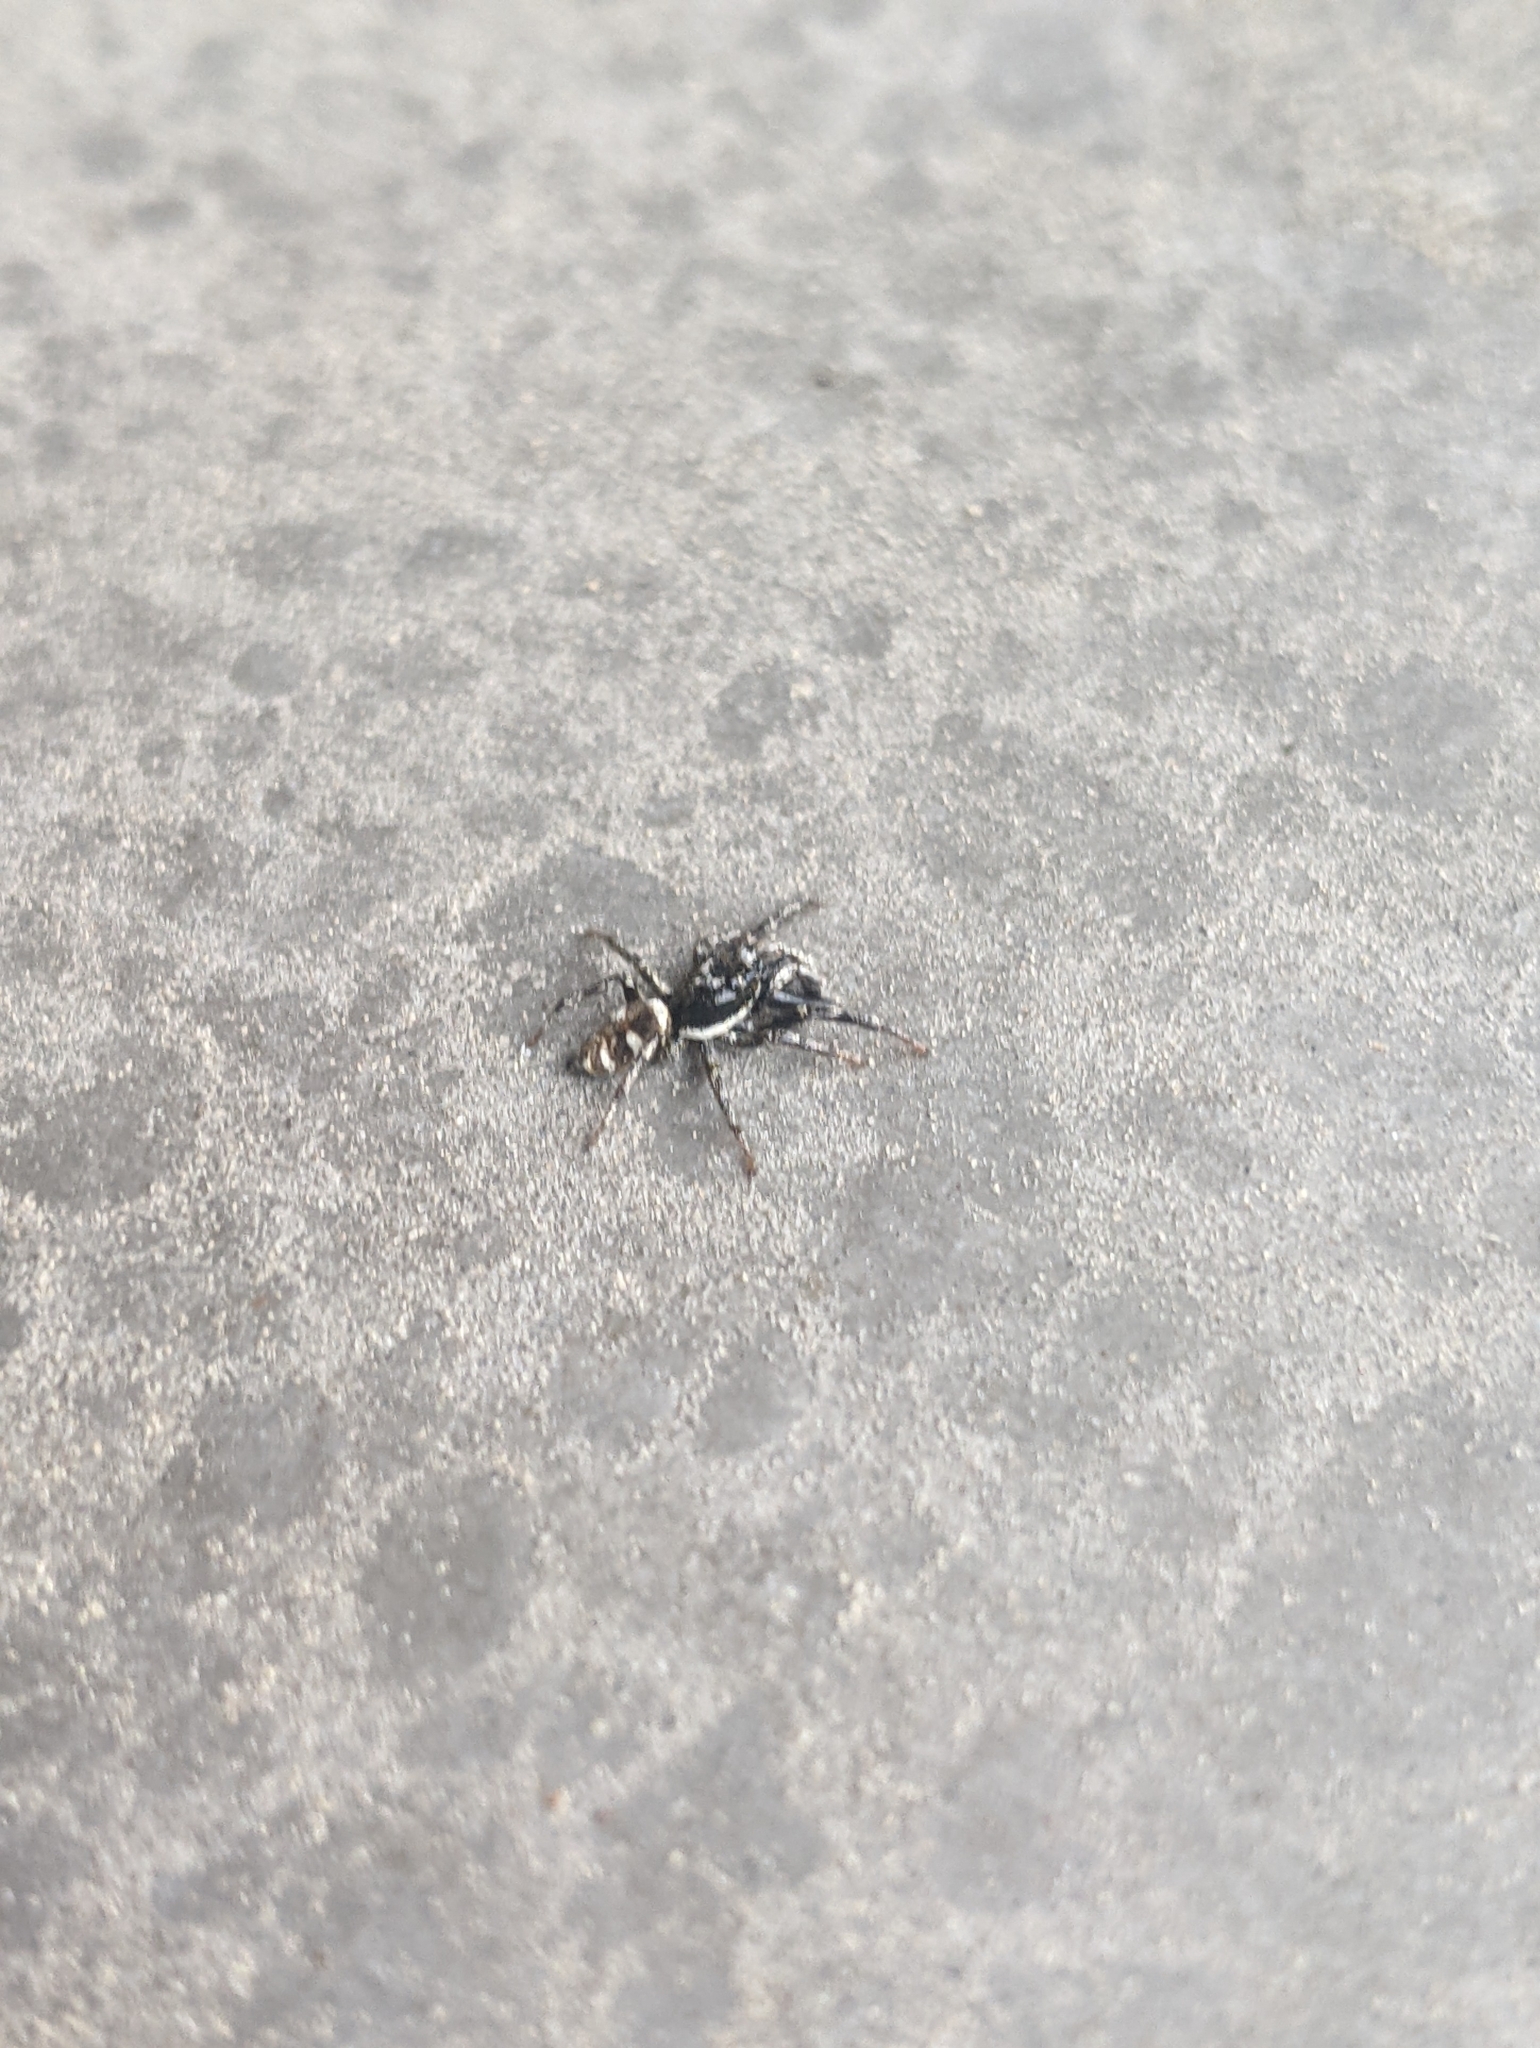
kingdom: Animalia
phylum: Arthropoda
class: Arachnida
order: Araneae
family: Salticidae
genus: Salticus
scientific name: Salticus scenicus
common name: Zebra jumper
